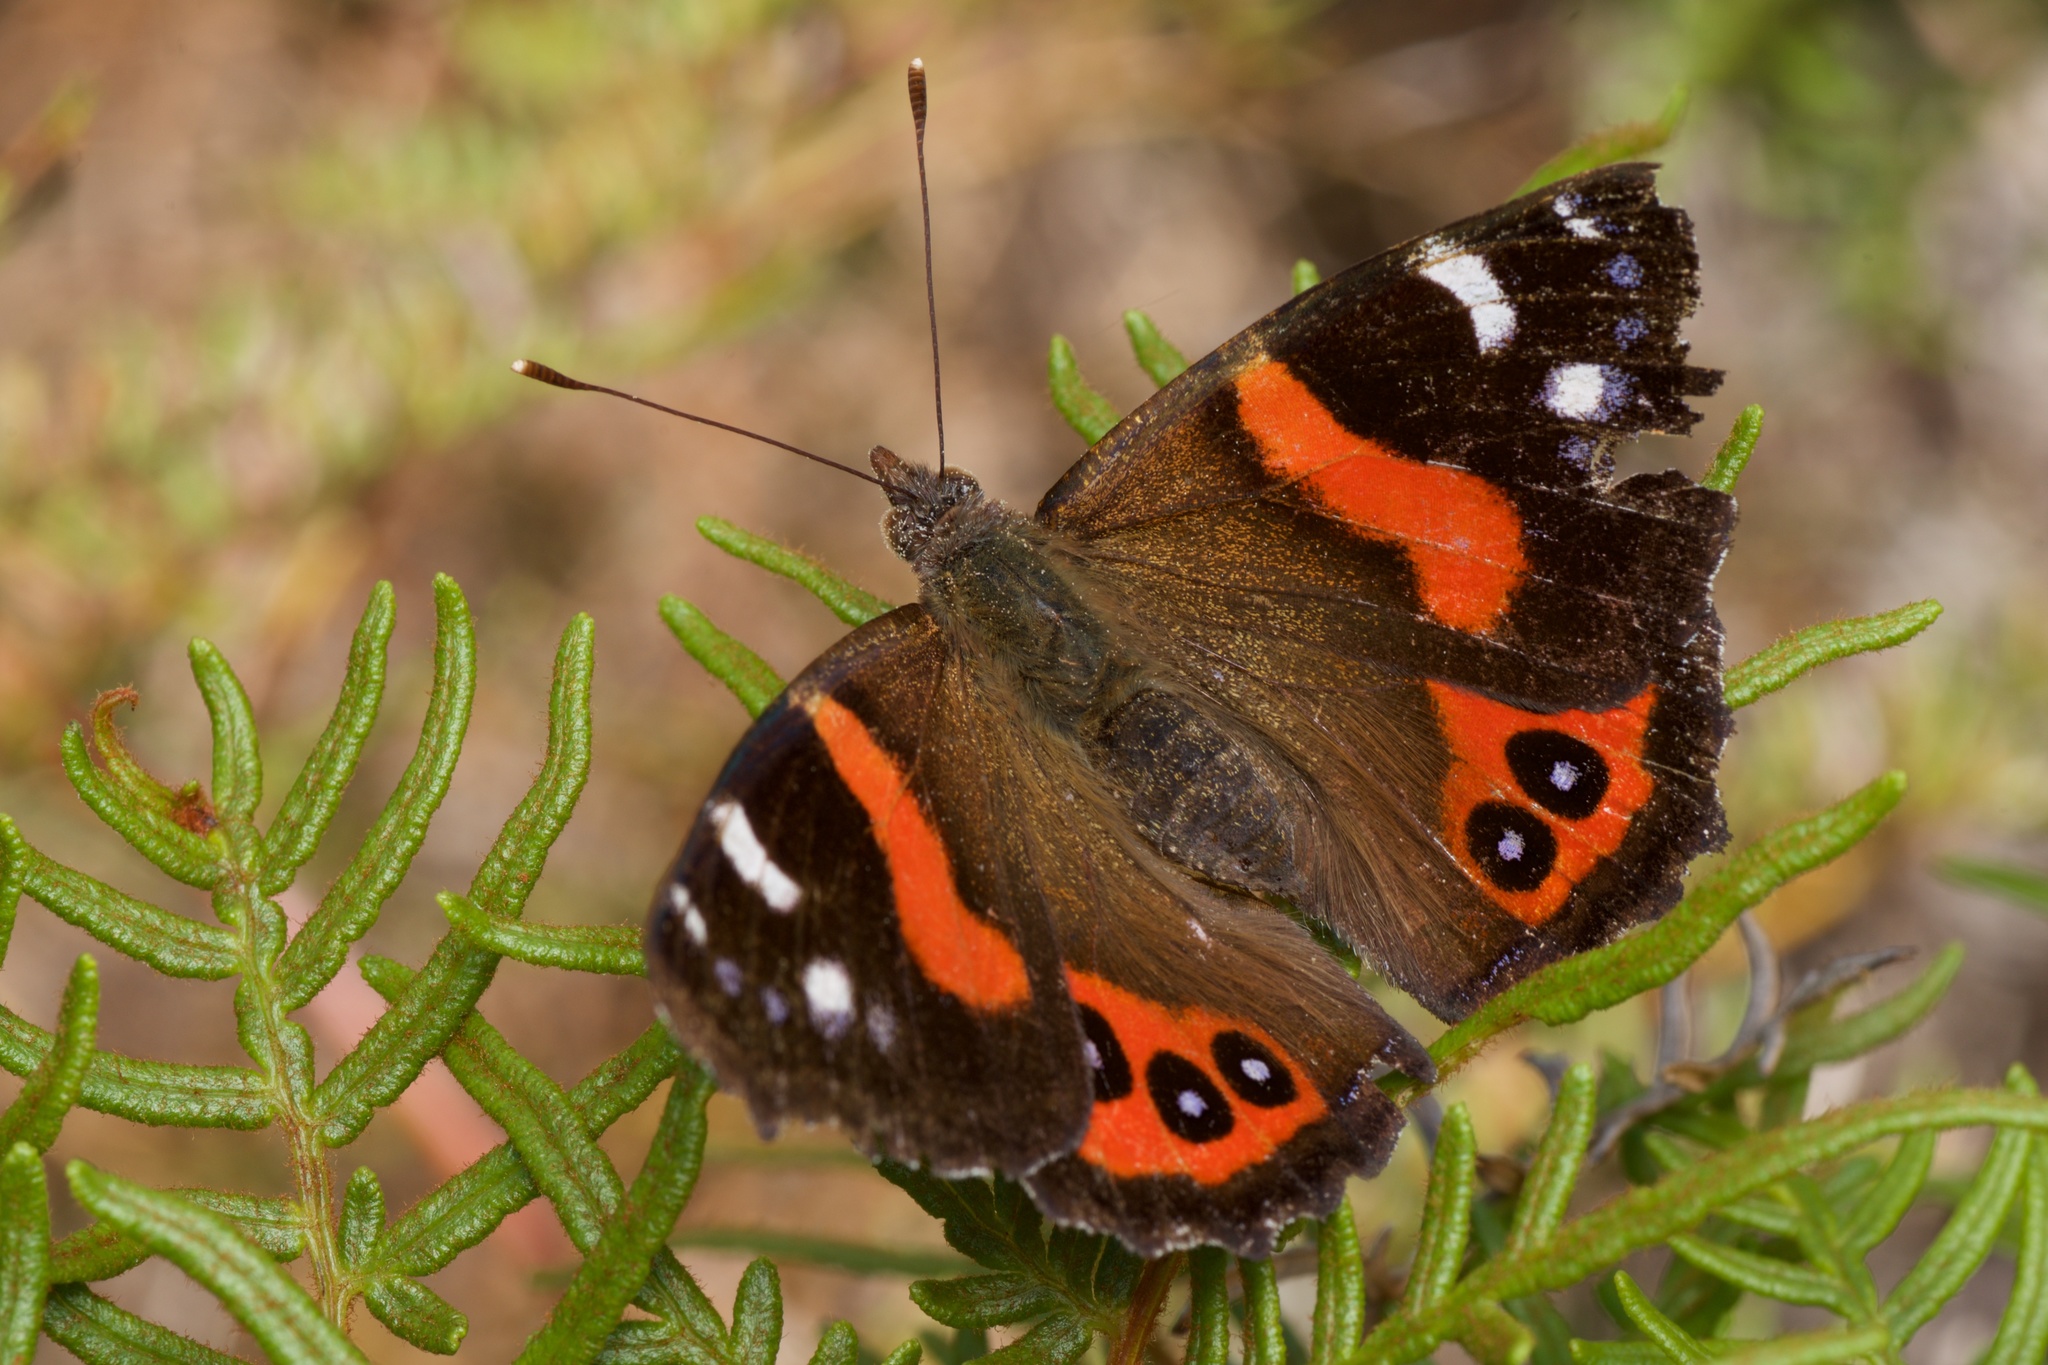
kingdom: Animalia
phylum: Arthropoda
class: Insecta
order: Lepidoptera
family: Nymphalidae
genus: Vanessa
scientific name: Vanessa gonerilla
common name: New zealand red admiral
